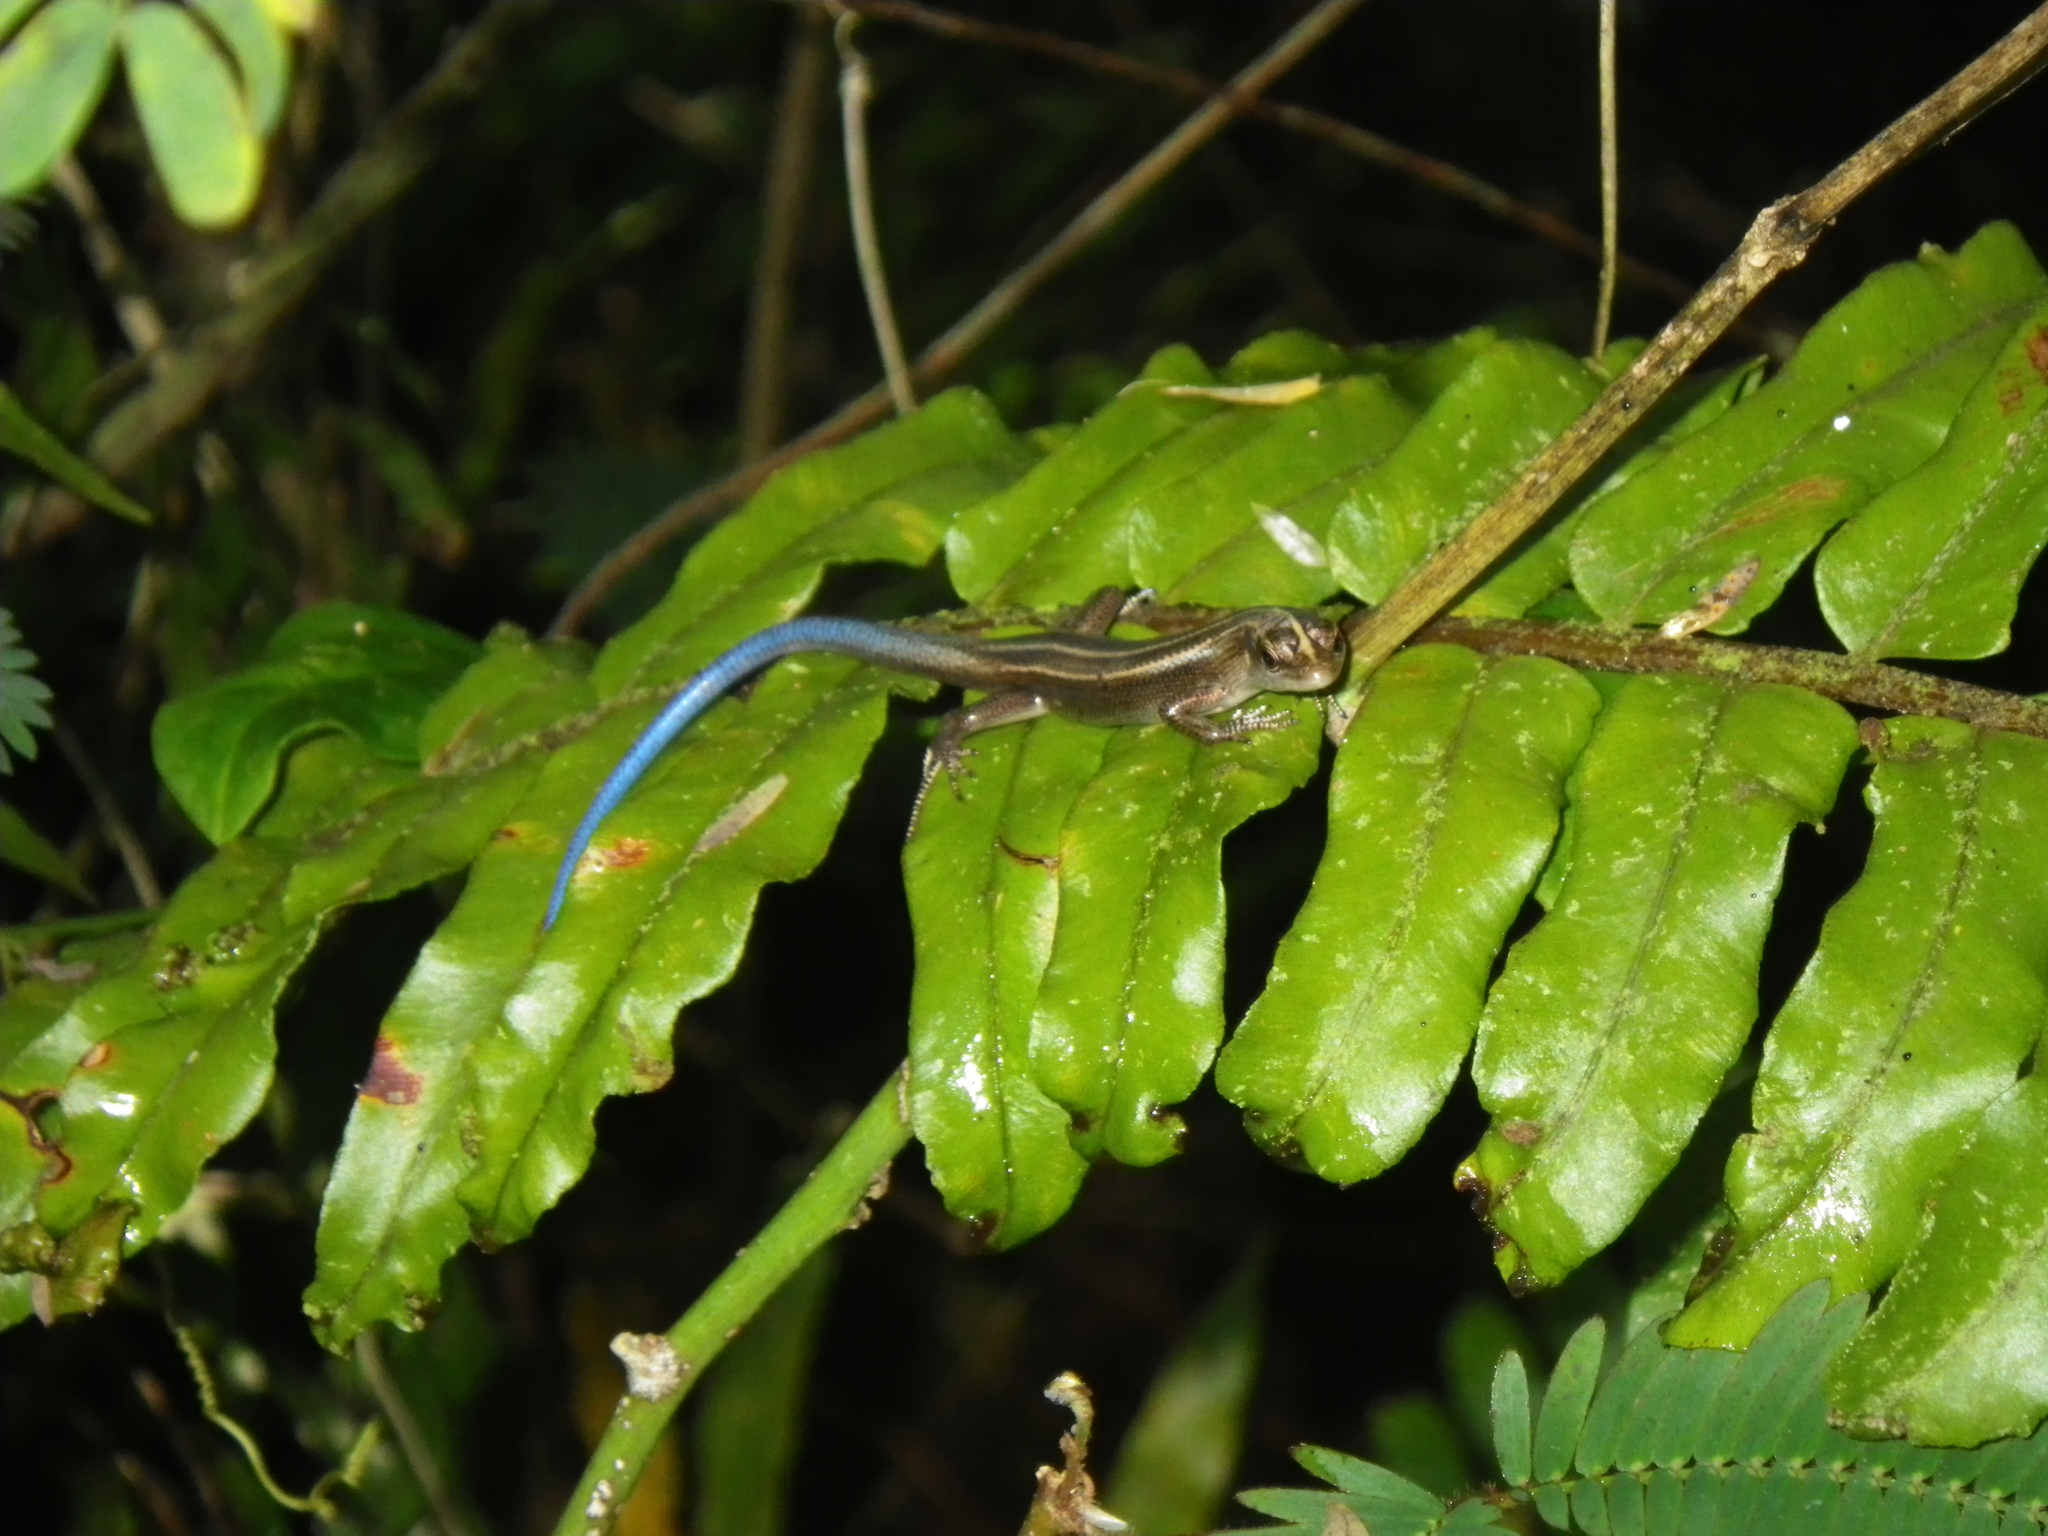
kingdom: Animalia
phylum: Chordata
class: Squamata
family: Scincidae
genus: Emoia
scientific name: Emoia caeruleocauda
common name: Pacific bluetail skink
